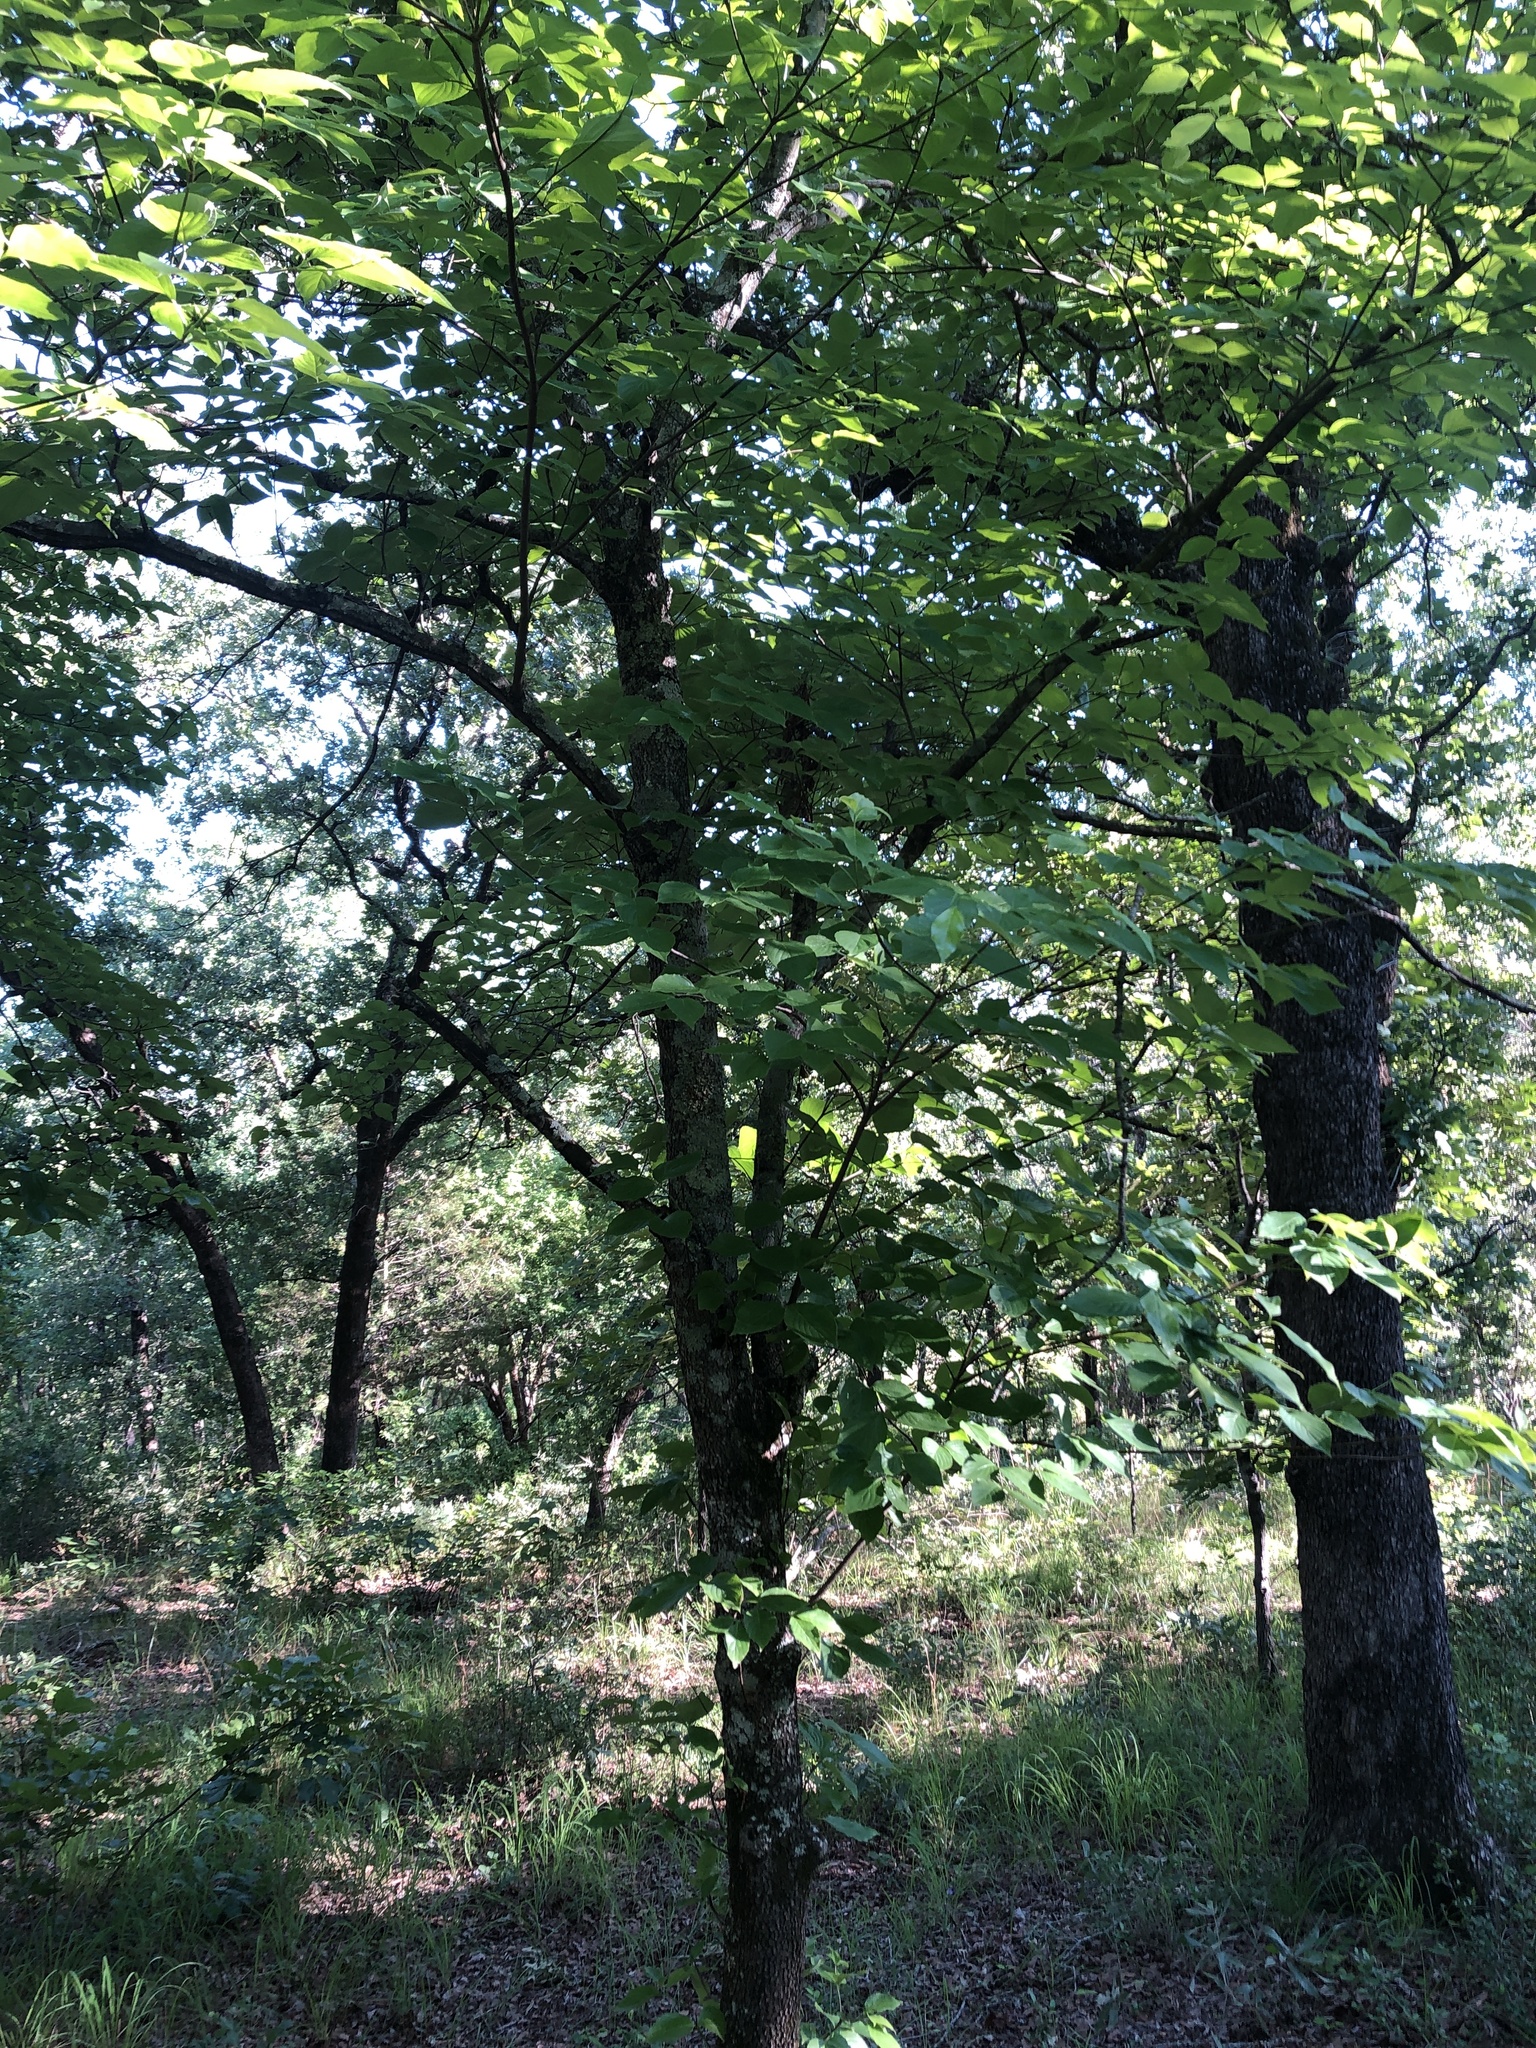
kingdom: Plantae
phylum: Tracheophyta
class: Magnoliopsida
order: Cornales
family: Cornaceae
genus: Cornus
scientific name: Cornus florida
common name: Flowering dogwood
